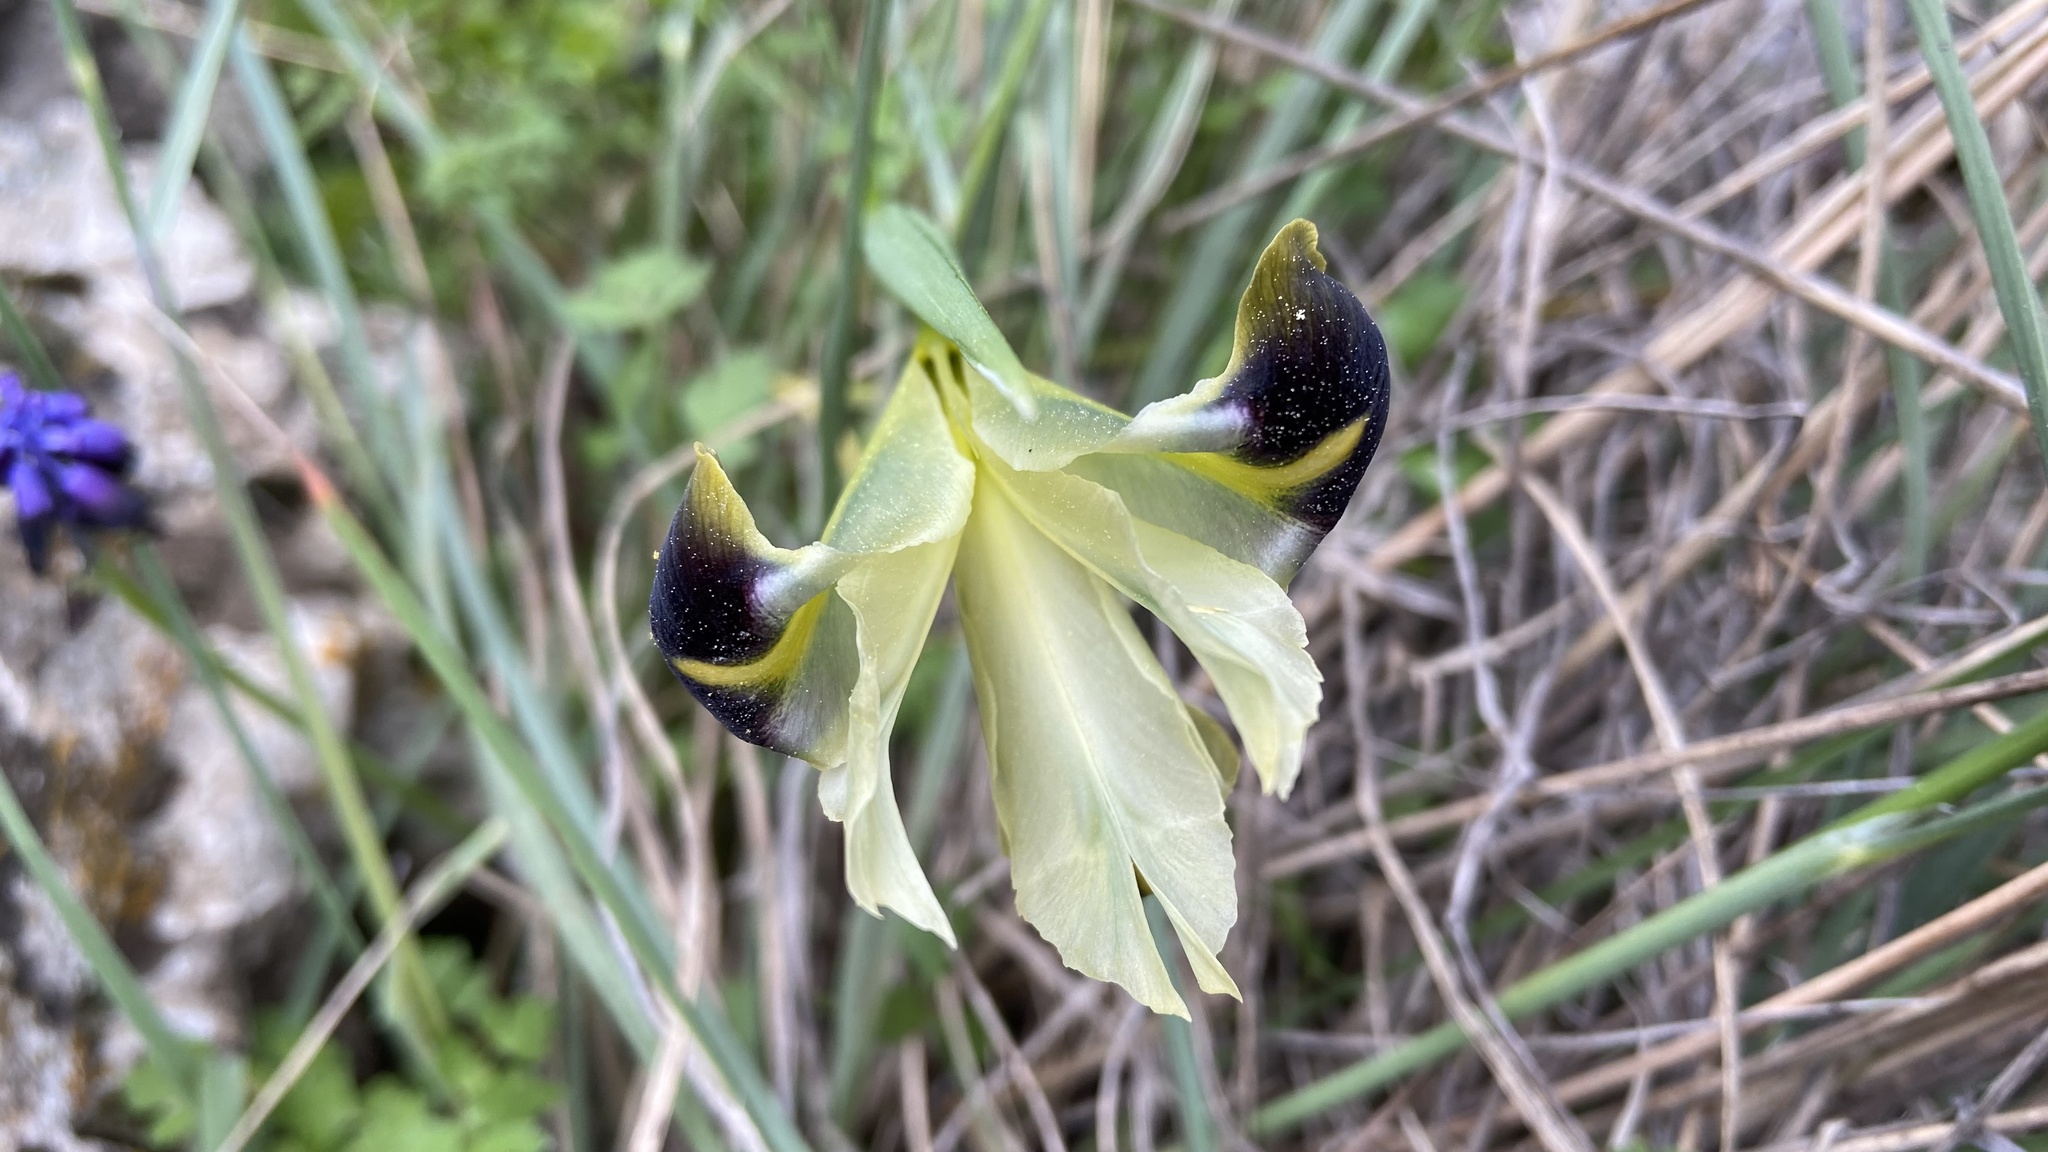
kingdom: Plantae
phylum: Tracheophyta
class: Liliopsida
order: Asparagales
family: Iridaceae
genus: Iris
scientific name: Iris tuberosa
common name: Snake's-head iris
